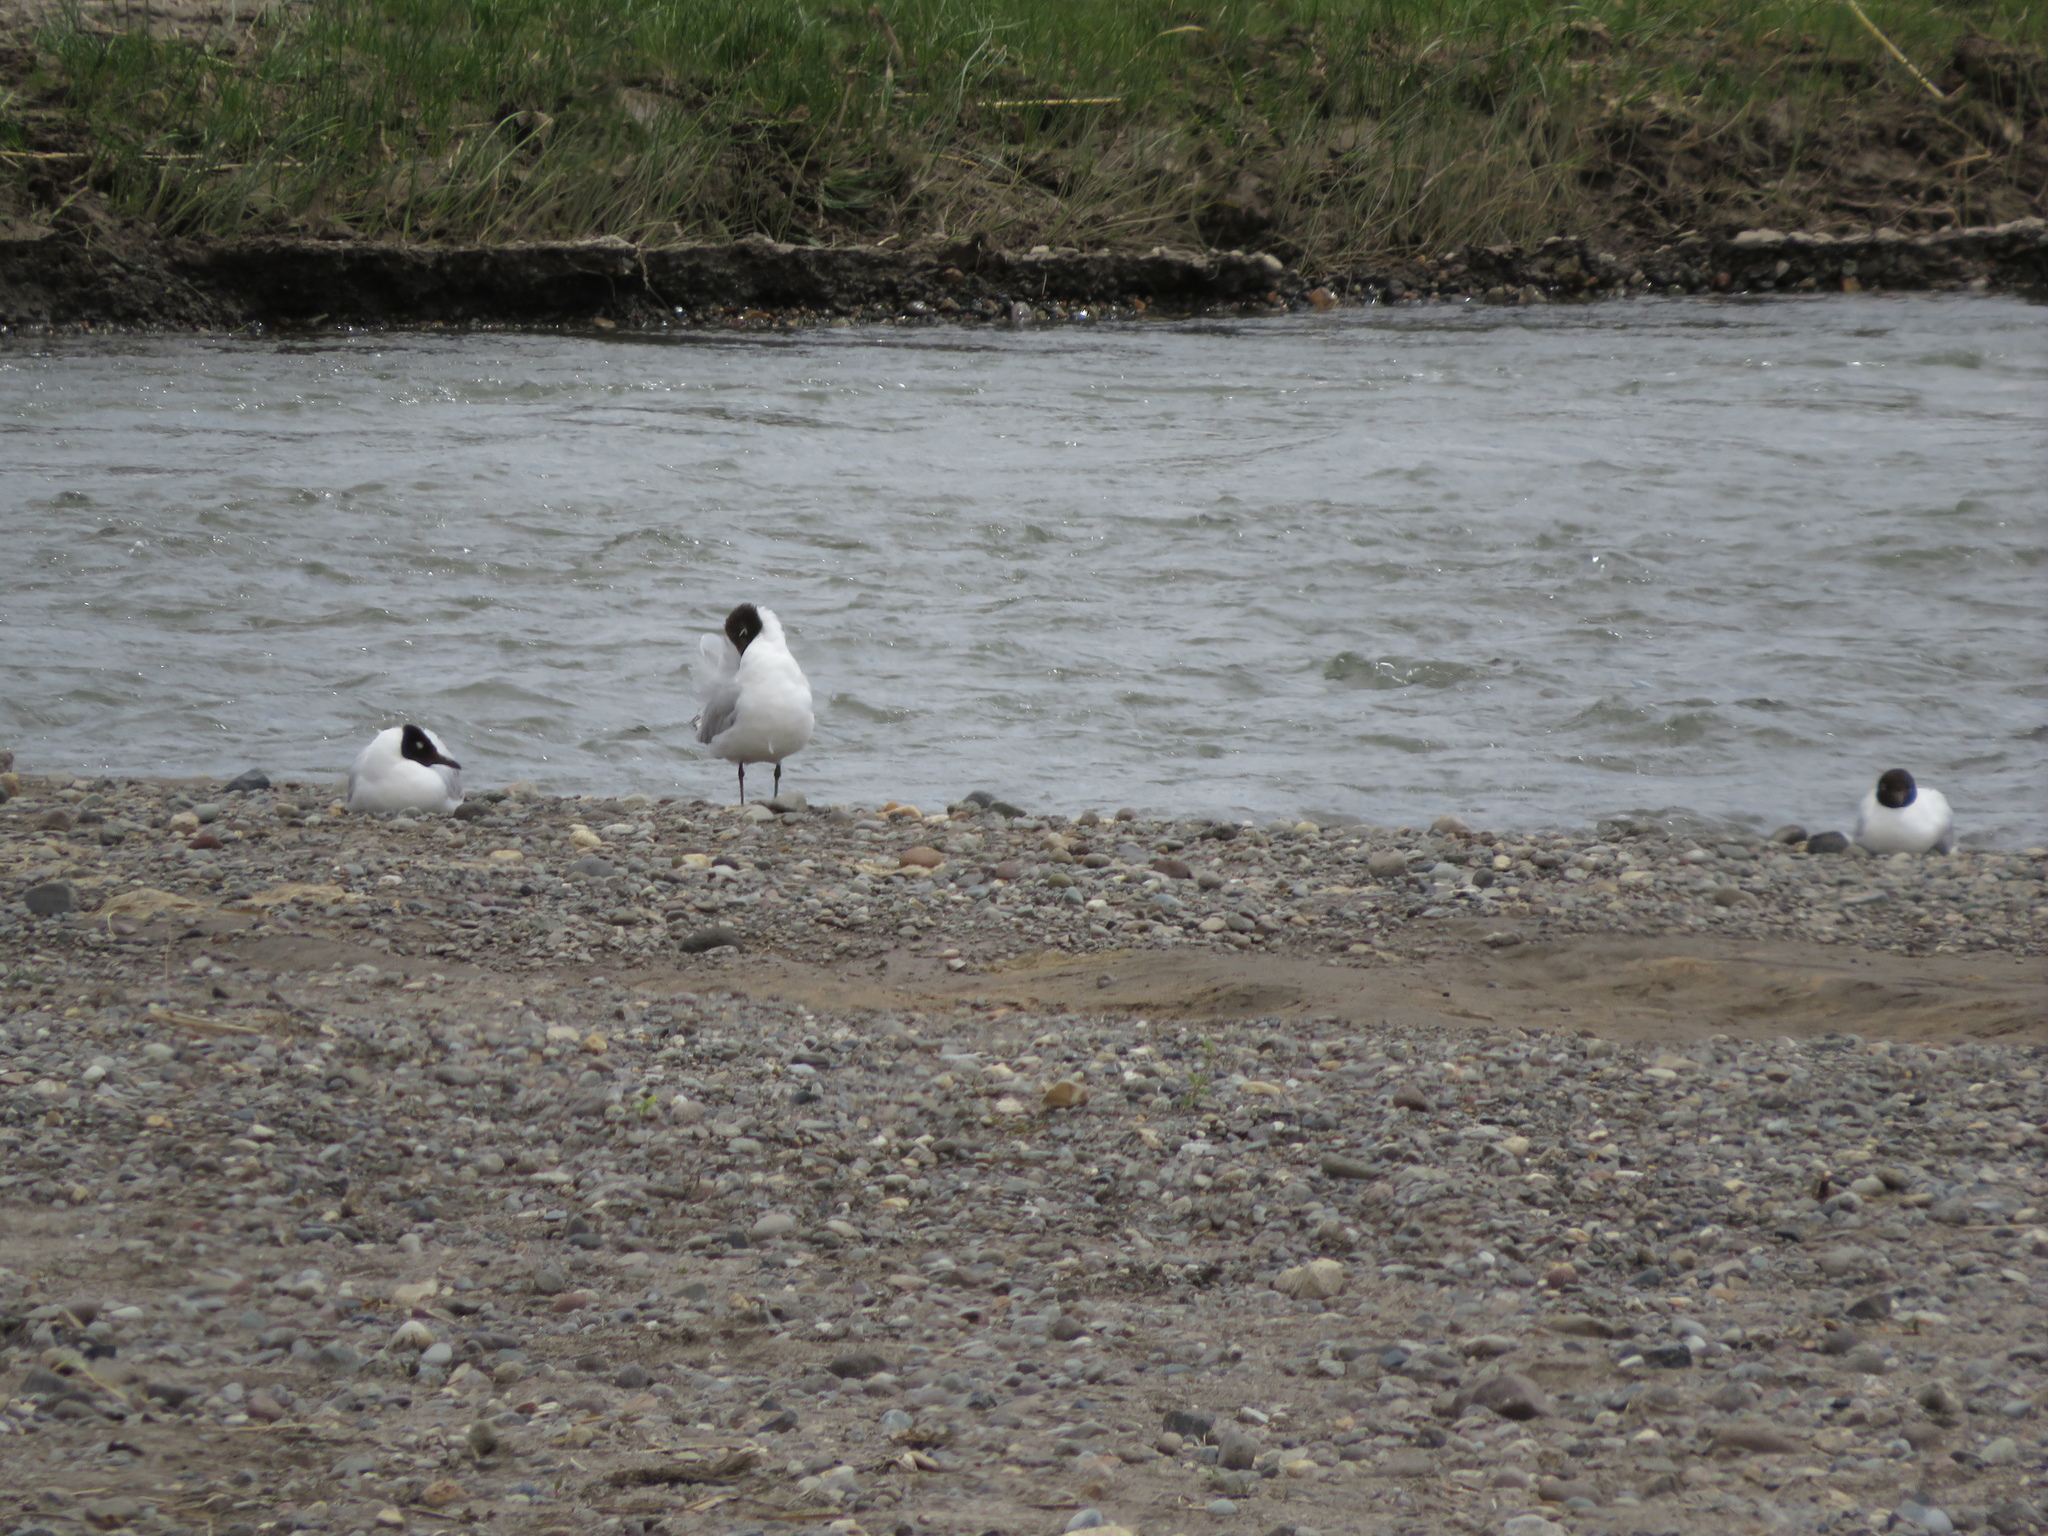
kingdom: Animalia
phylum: Chordata
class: Aves
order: Charadriiformes
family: Laridae
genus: Chroicocephalus
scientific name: Chroicocephalus serranus
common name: Andean gull
